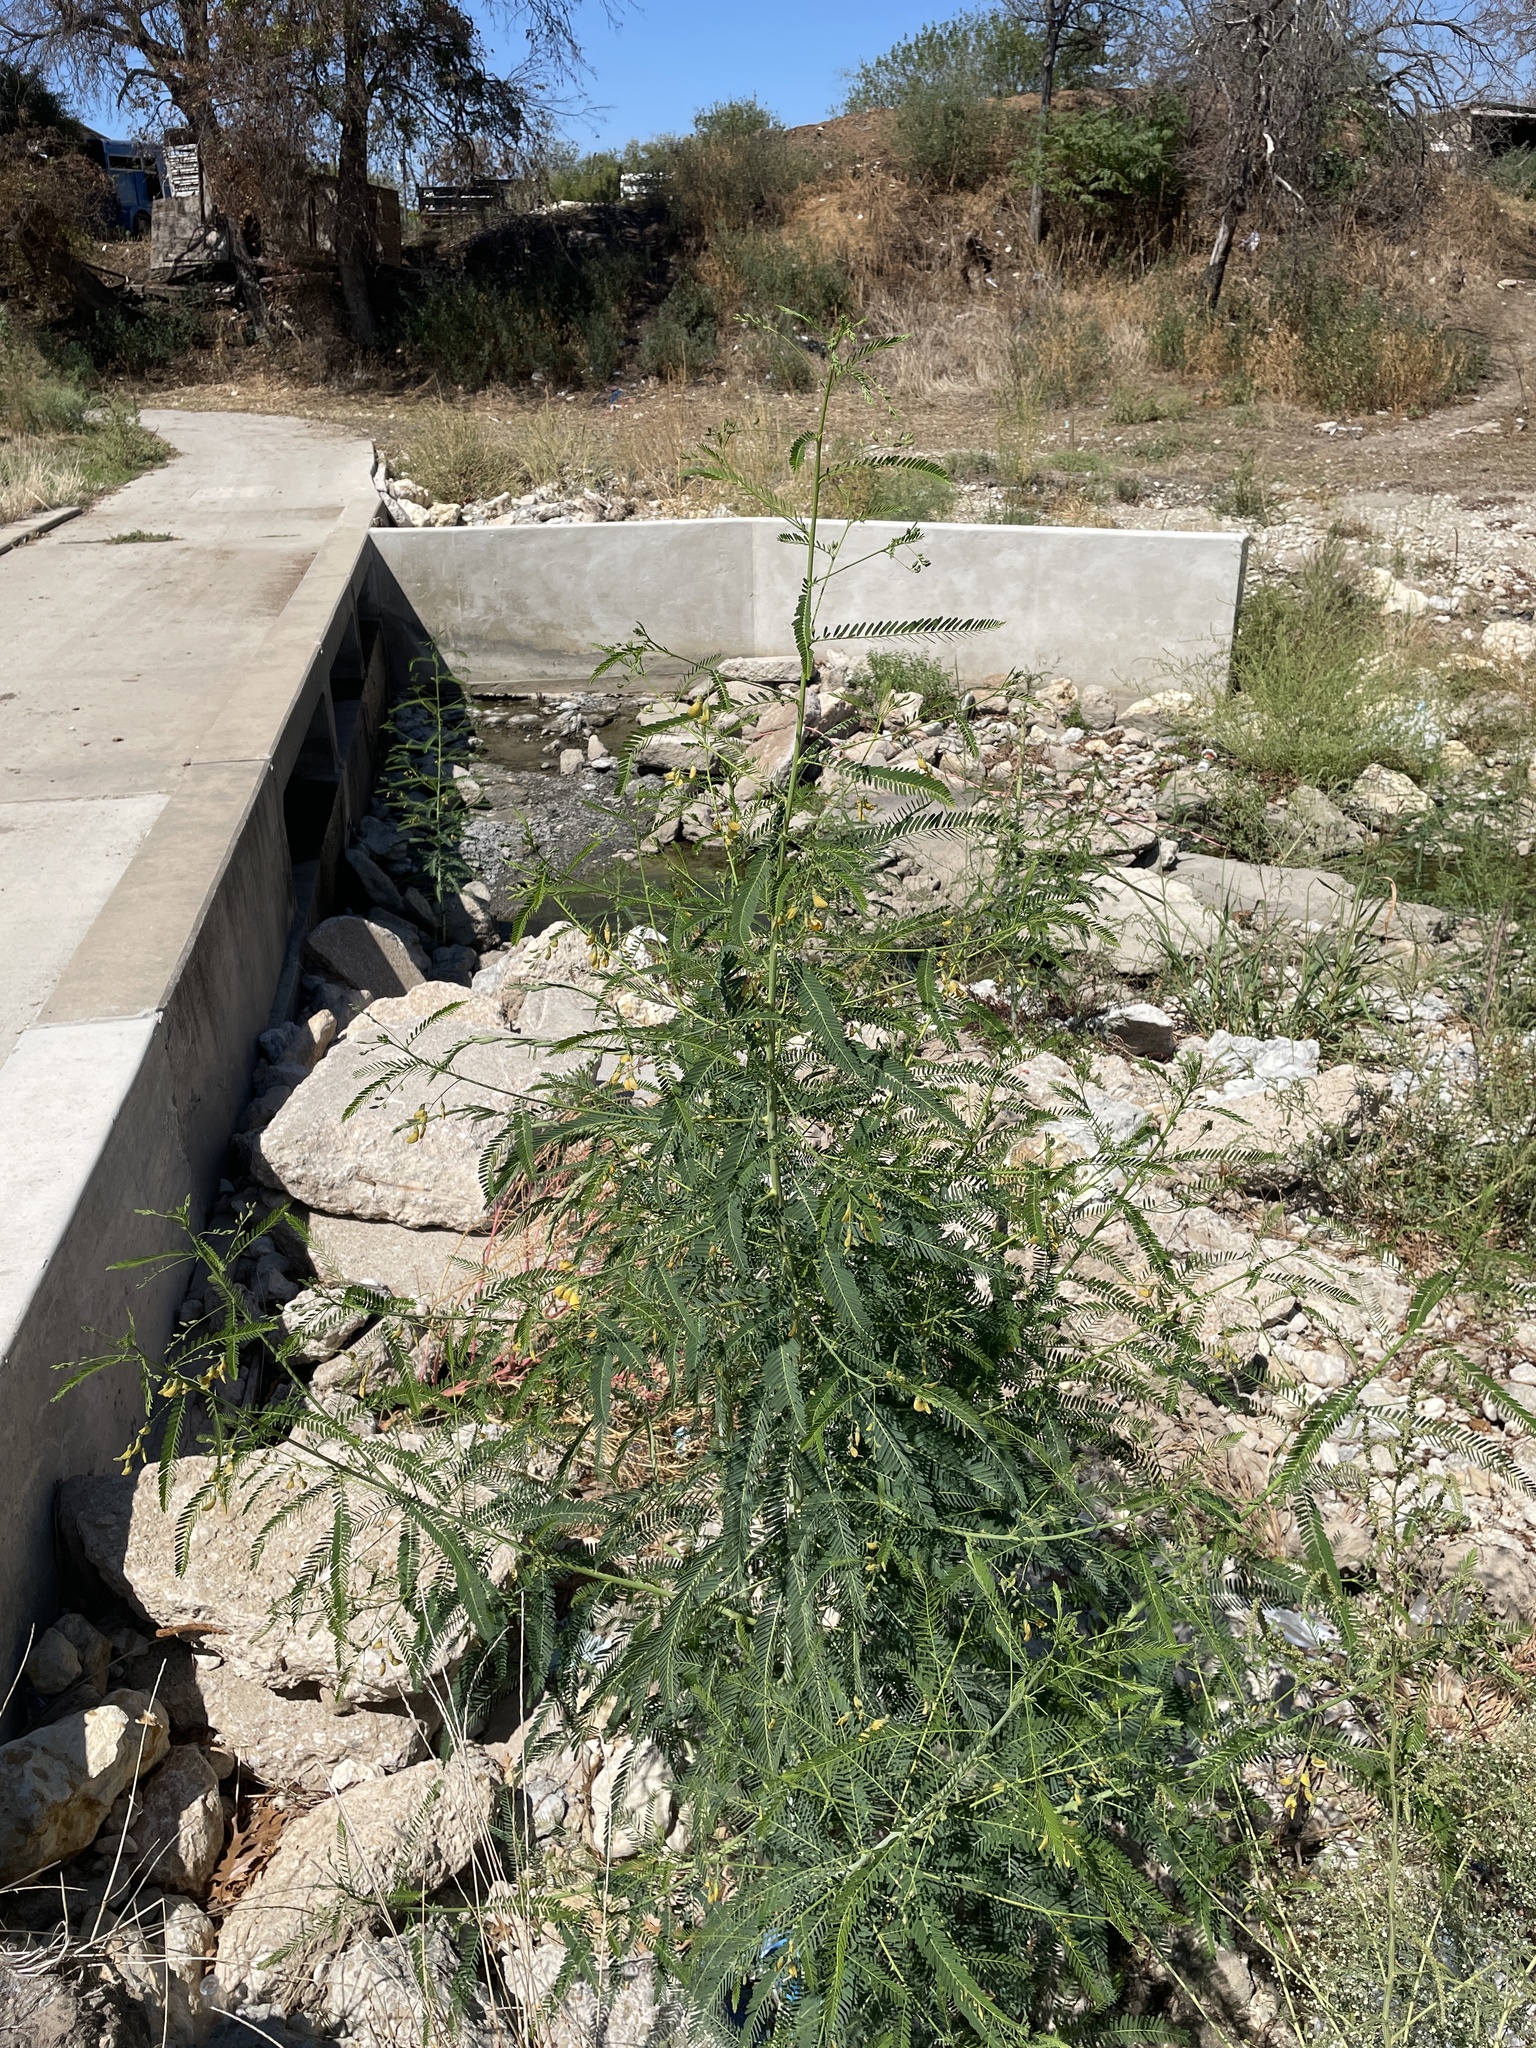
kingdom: Plantae
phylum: Tracheophyta
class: Magnoliopsida
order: Fabales
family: Fabaceae
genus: Sesbania
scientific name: Sesbania herbacea
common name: Bigpod sesbania
